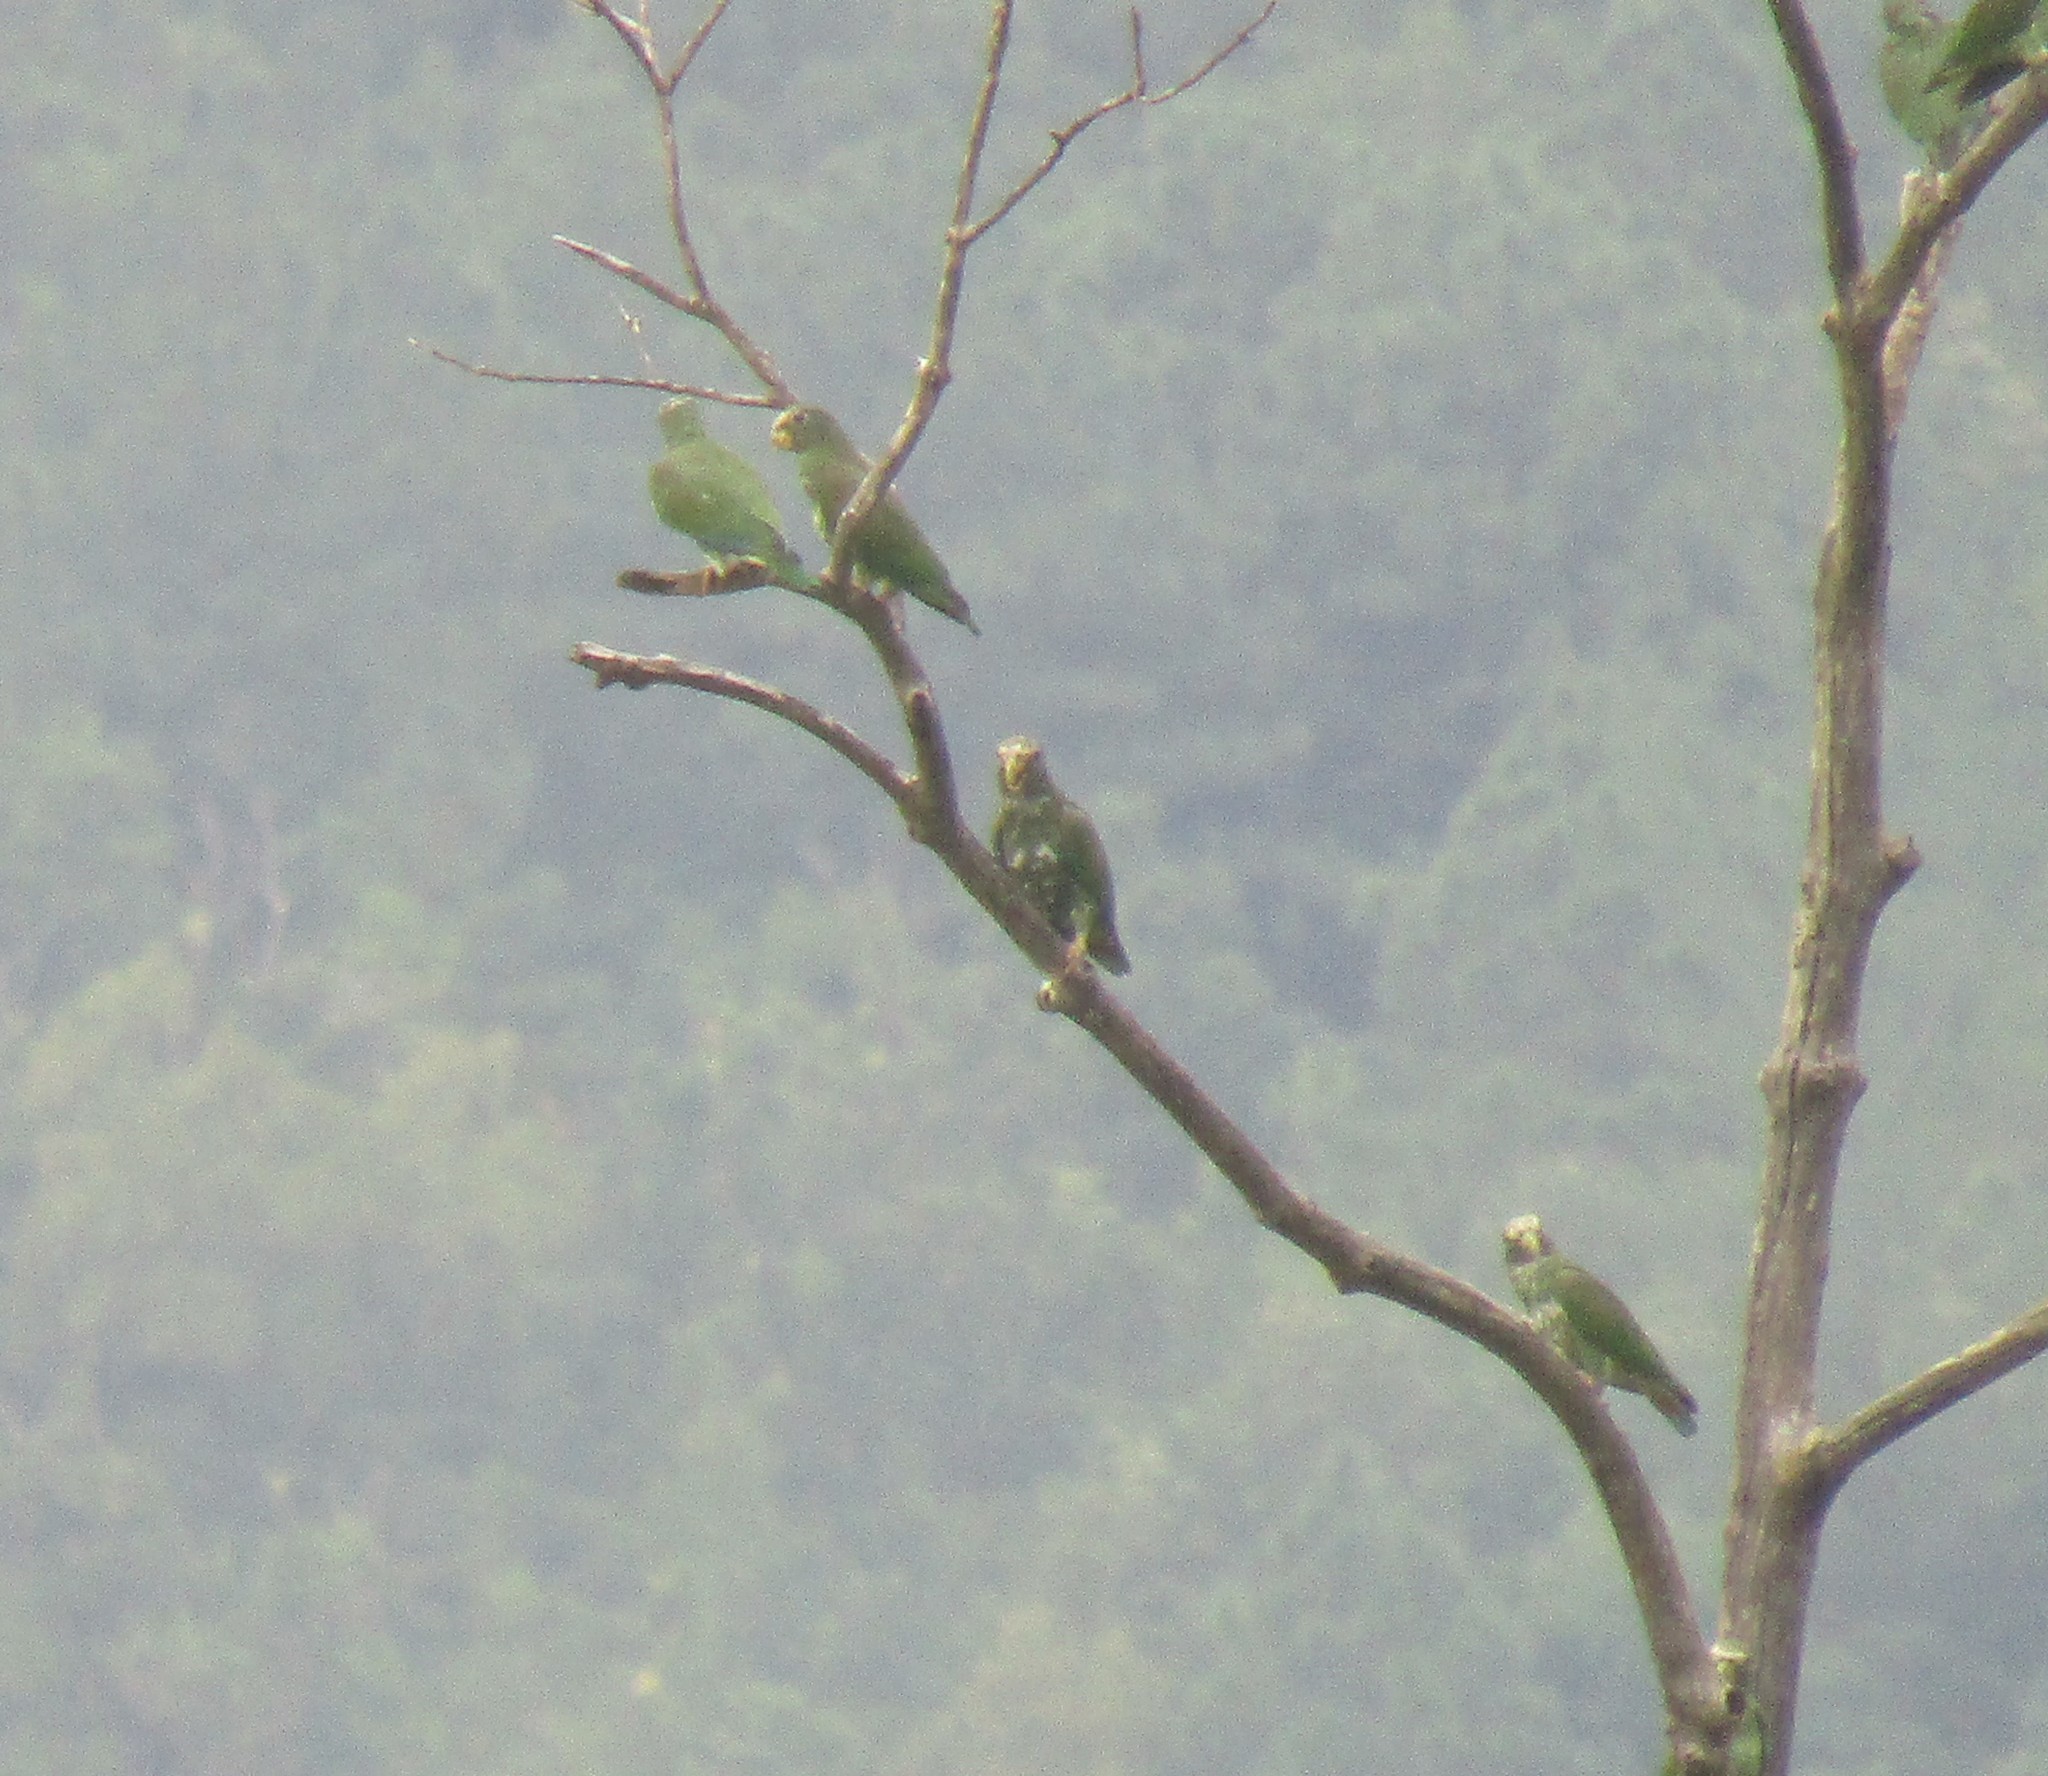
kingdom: Animalia
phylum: Chordata
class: Aves
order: Psittaciformes
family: Psittacidae
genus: Pionus
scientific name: Pionus senilis
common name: White-crowned parrot
